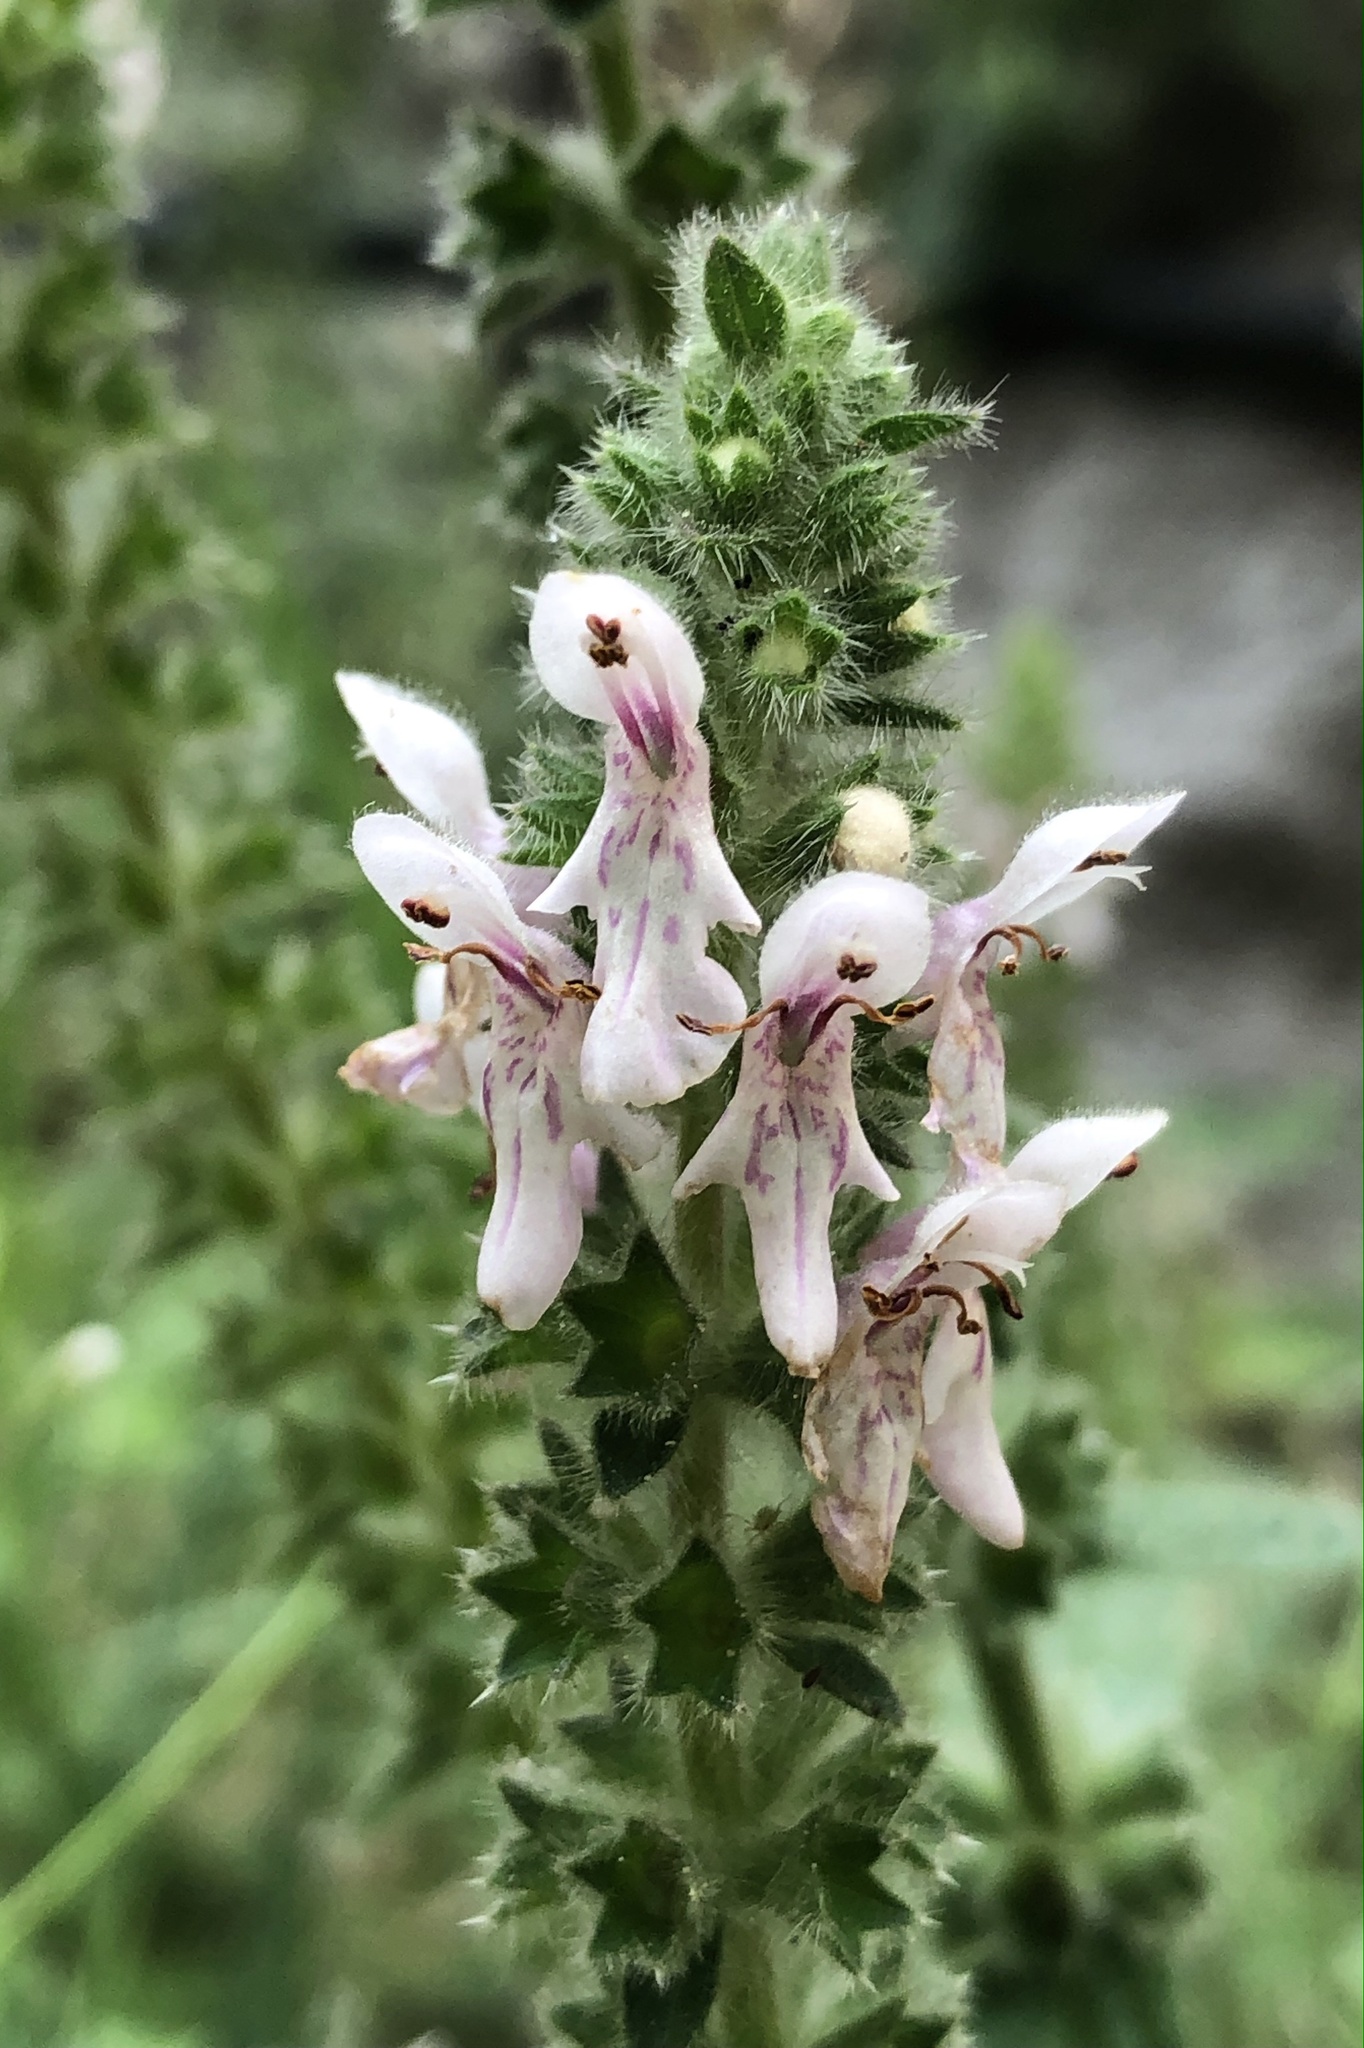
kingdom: Plantae
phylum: Tracheophyta
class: Magnoliopsida
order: Lamiales
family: Lamiaceae
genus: Stachys
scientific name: Stachys stebbinsii
